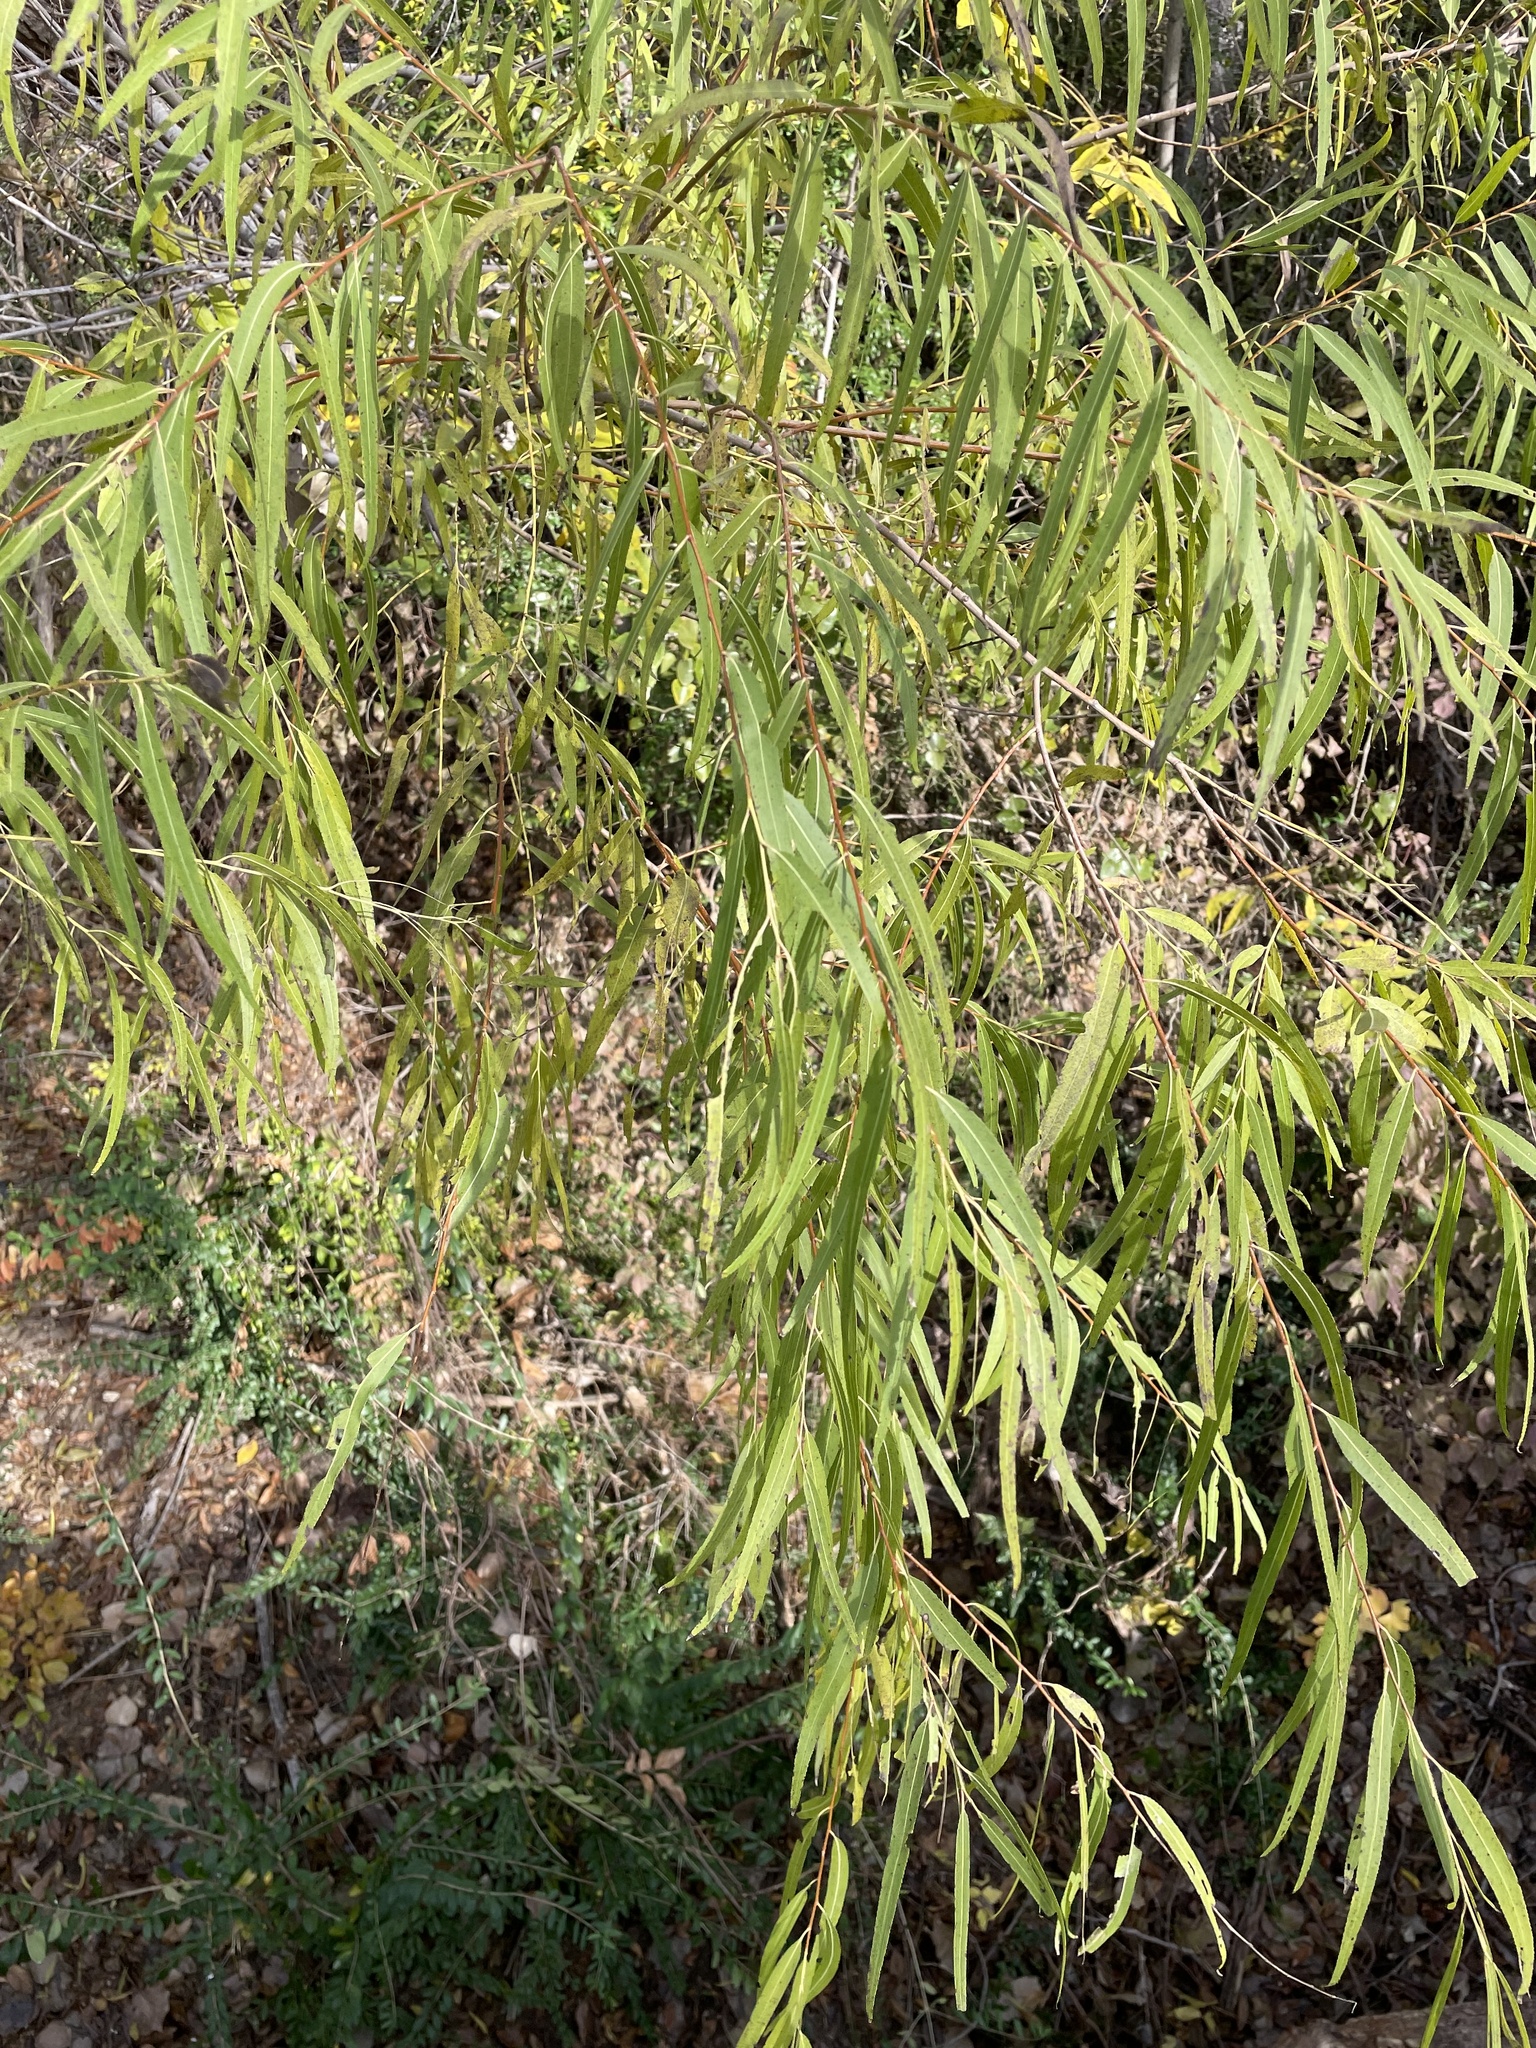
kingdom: Plantae
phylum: Tracheophyta
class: Magnoliopsida
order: Malpighiales
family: Salicaceae
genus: Salix
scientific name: Salix nigra
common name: Black willow
